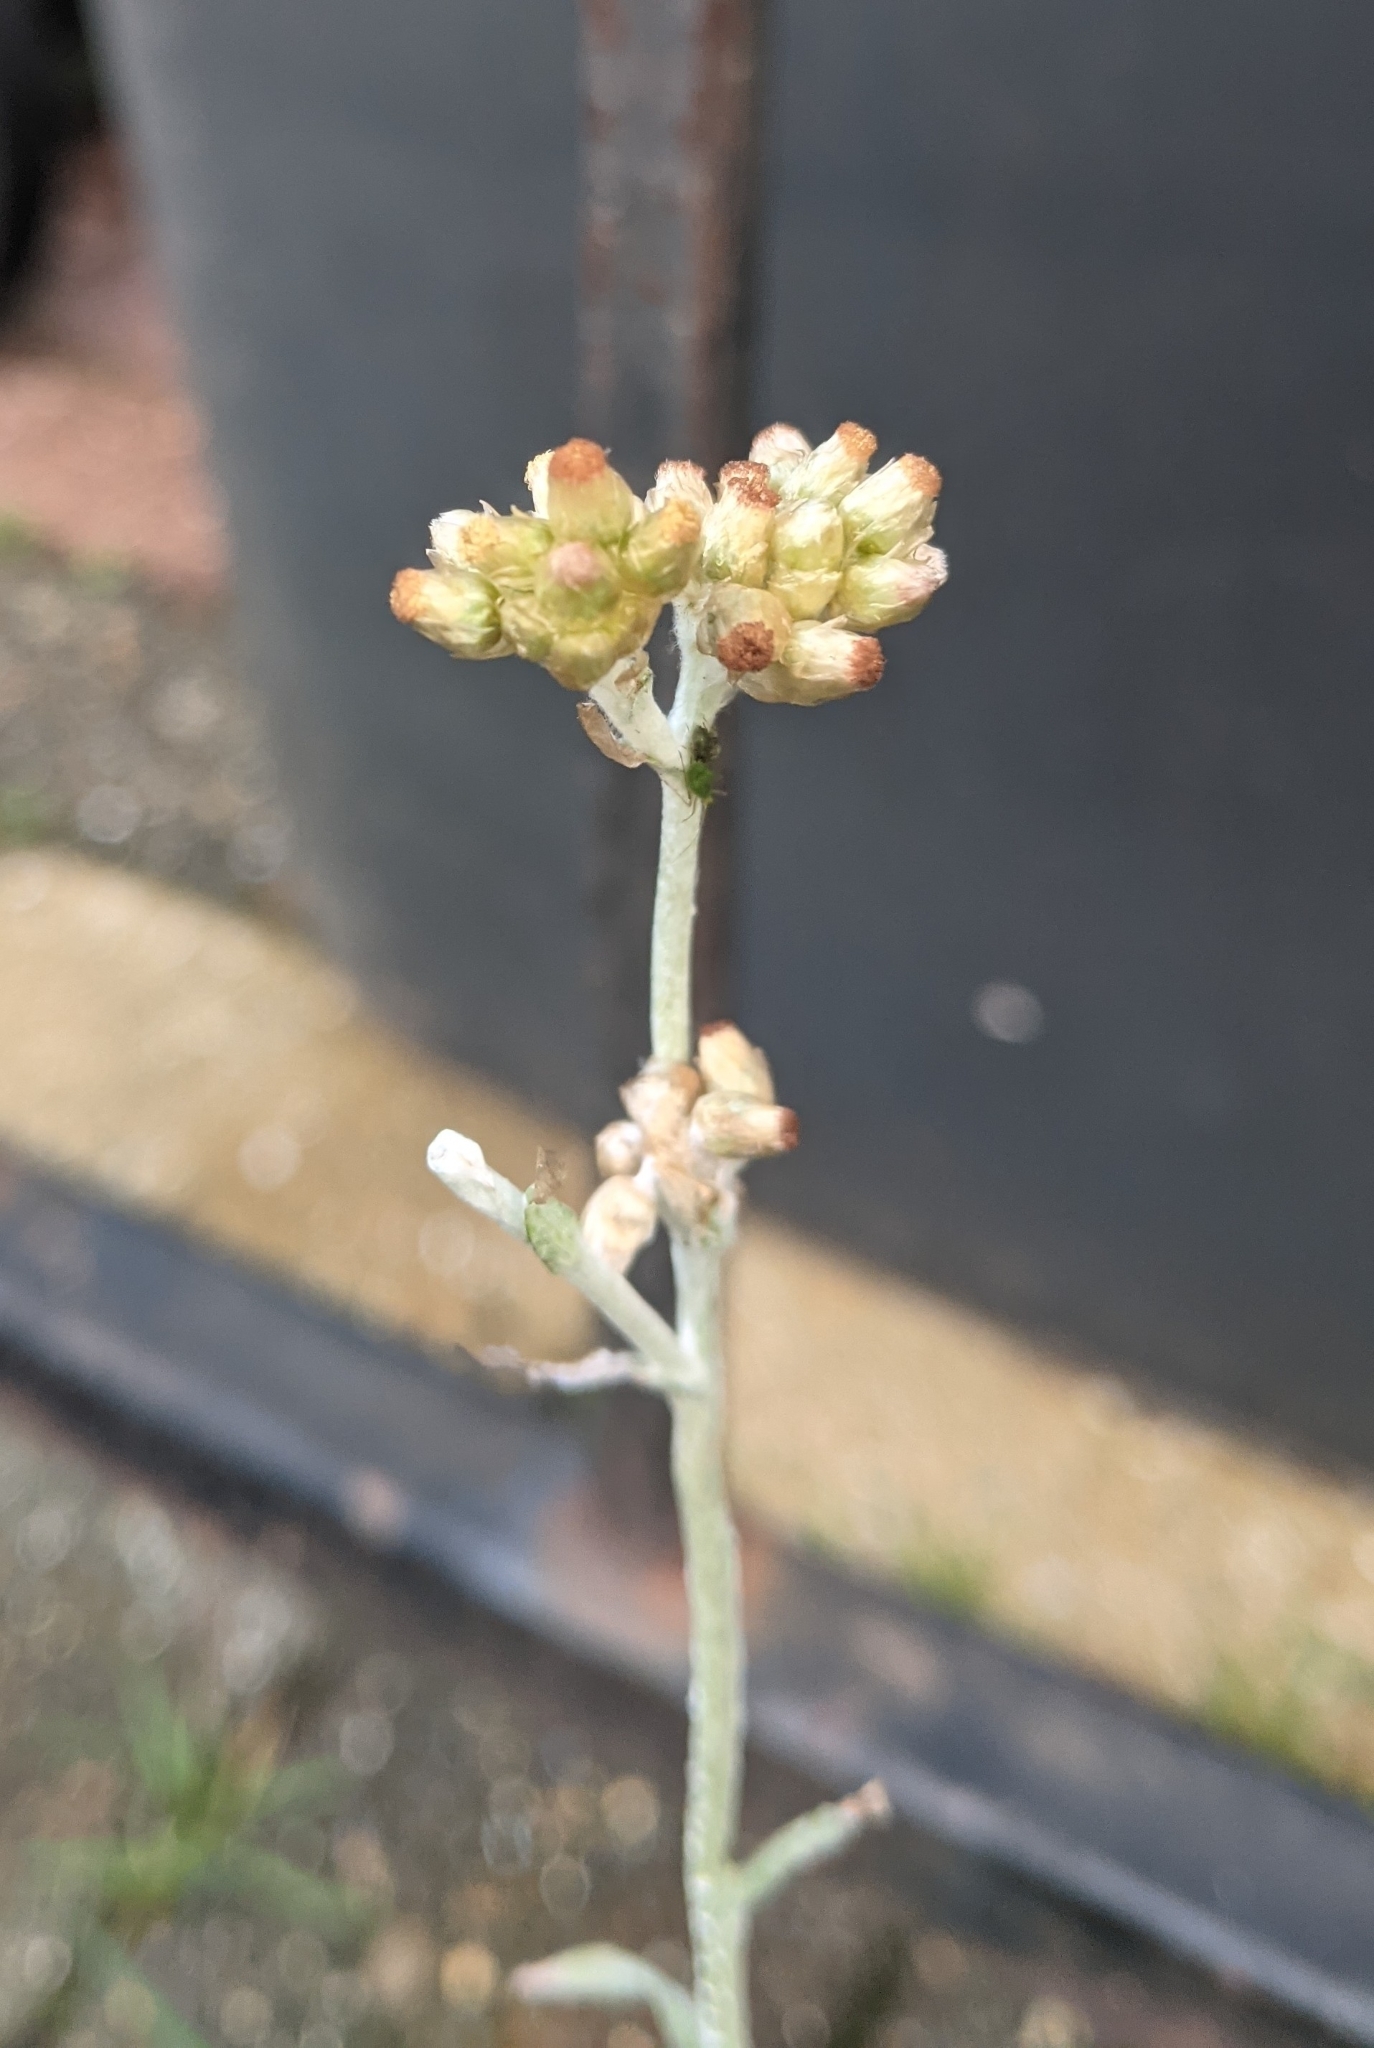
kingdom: Plantae
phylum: Tracheophyta
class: Magnoliopsida
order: Asterales
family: Asteraceae
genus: Helichrysum
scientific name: Helichrysum luteoalbum
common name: Daisy
